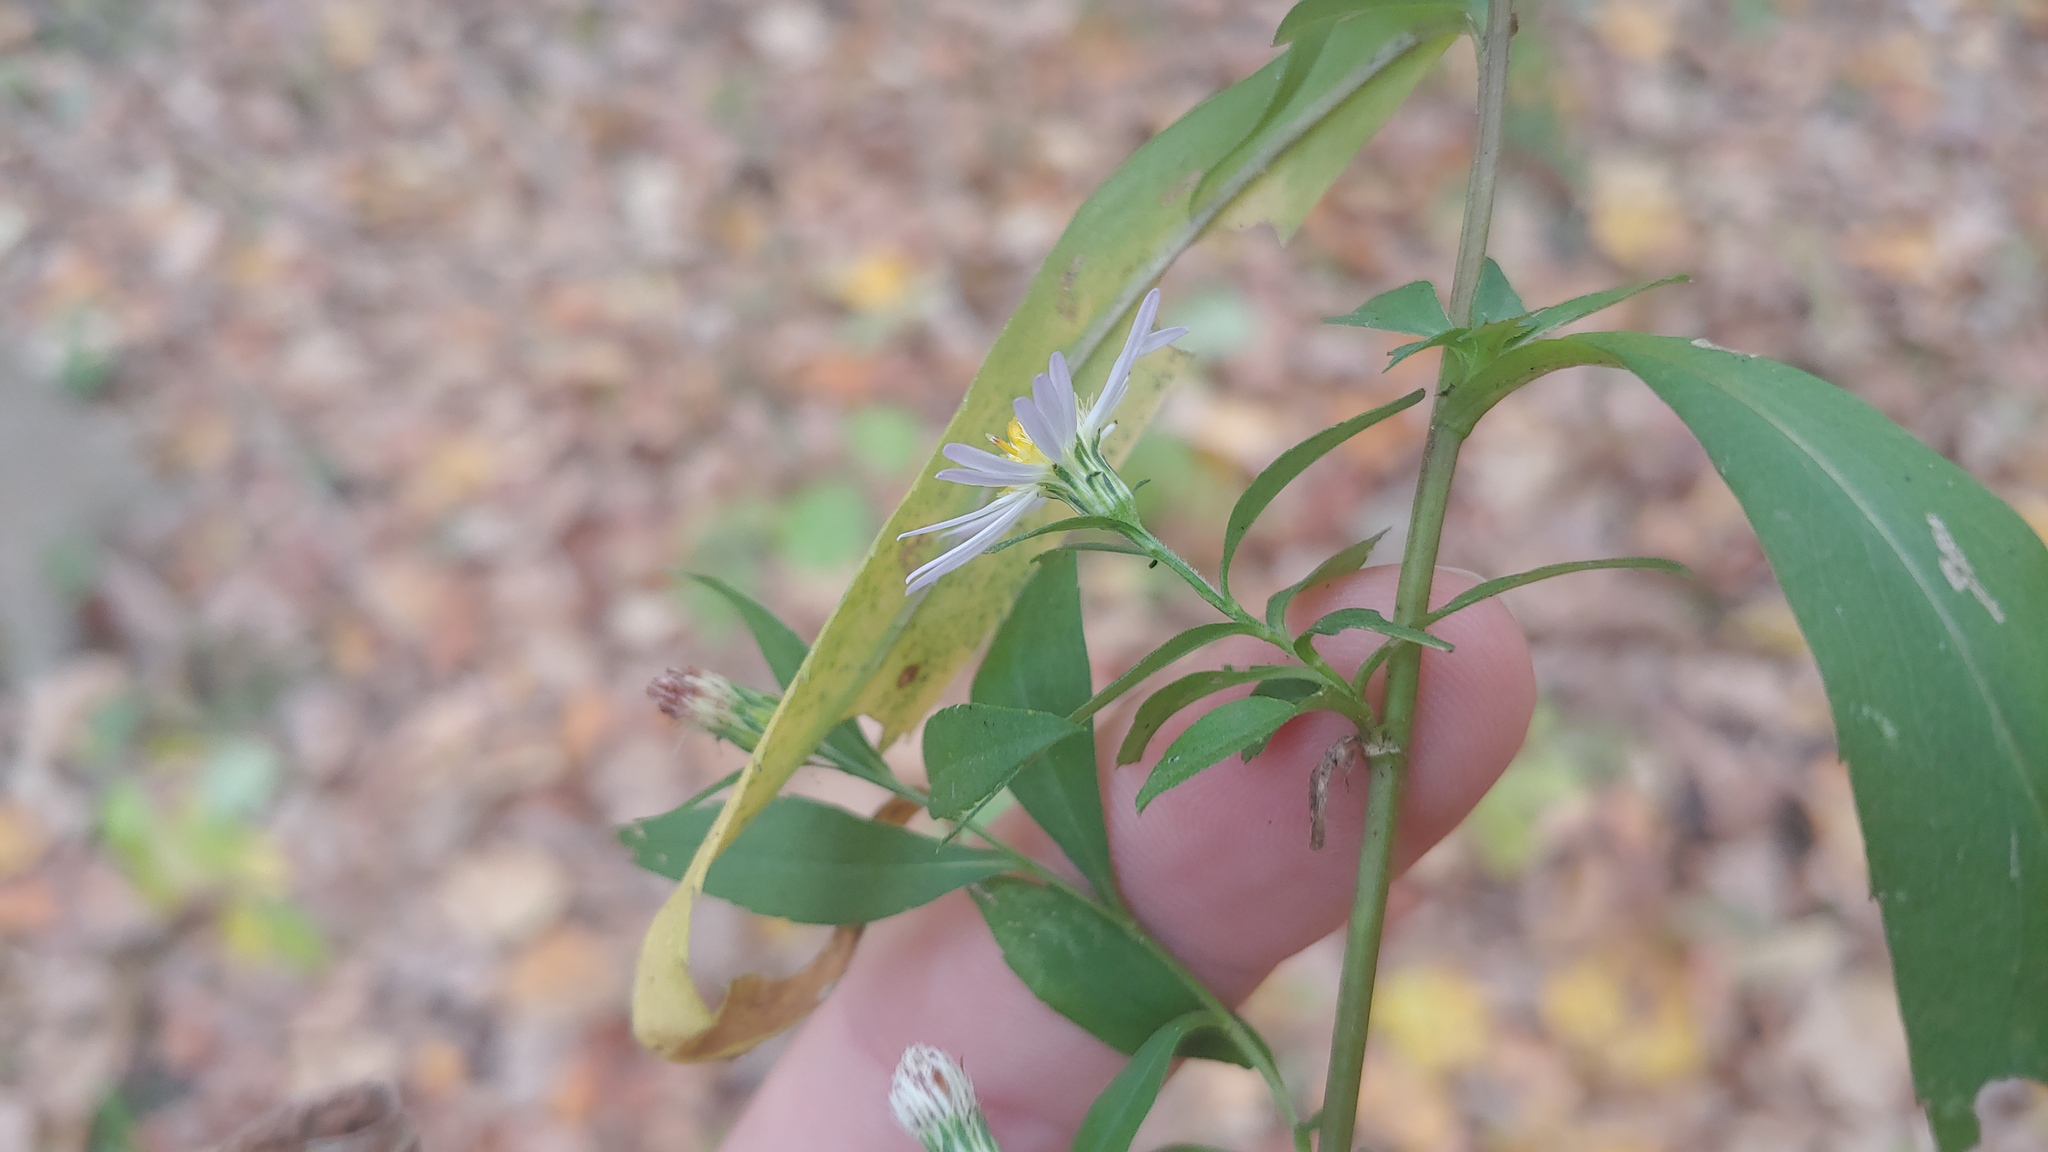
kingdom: Plantae
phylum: Tracheophyta
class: Magnoliopsida
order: Asterales
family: Asteraceae
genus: Symphyotrichum
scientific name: Symphyotrichum lanceolatum
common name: Panicled aster
